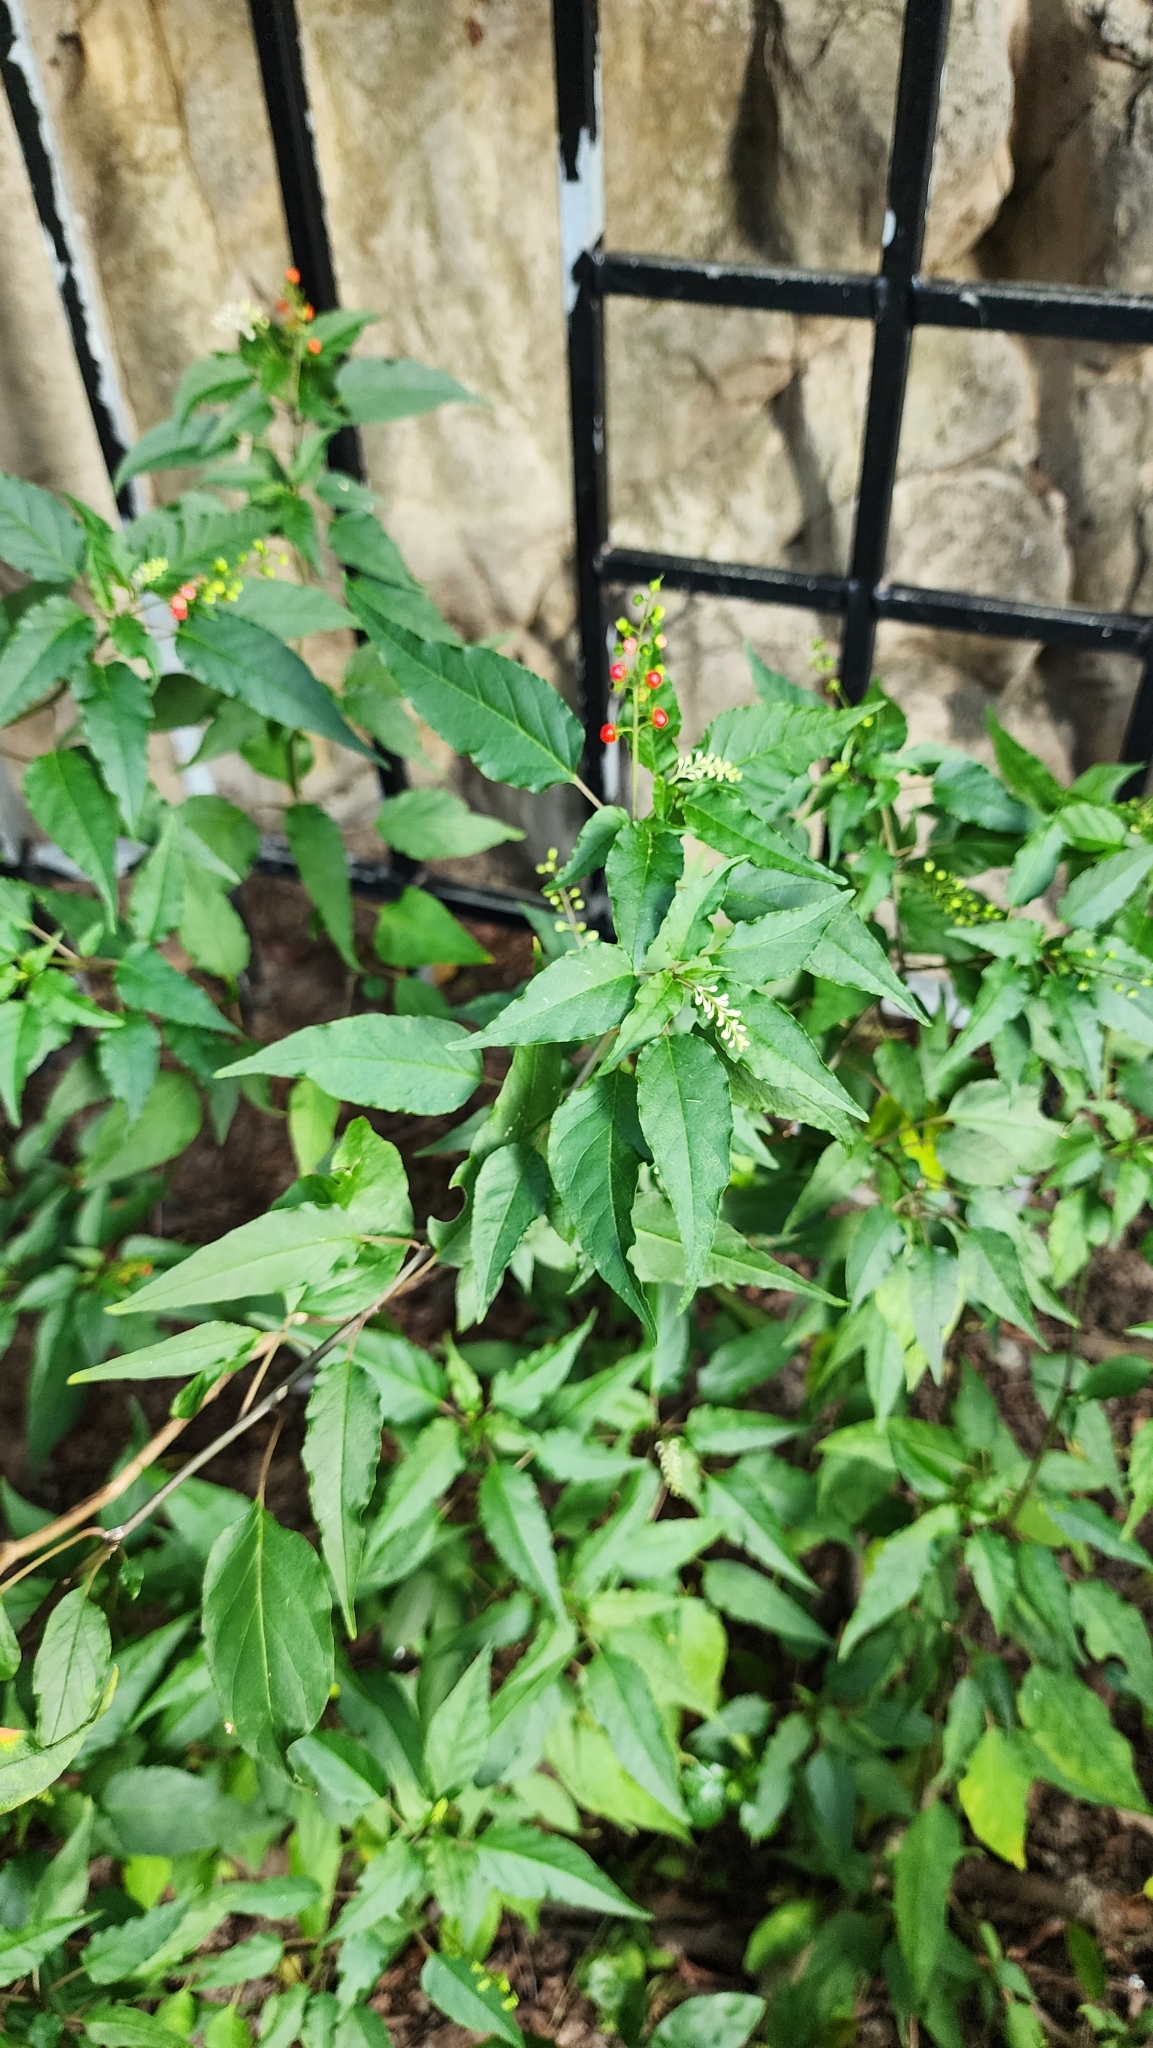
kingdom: Plantae
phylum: Tracheophyta
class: Magnoliopsida
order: Caryophyllales
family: Phytolaccaceae
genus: Rivina
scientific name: Rivina humilis
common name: Rougeplant
